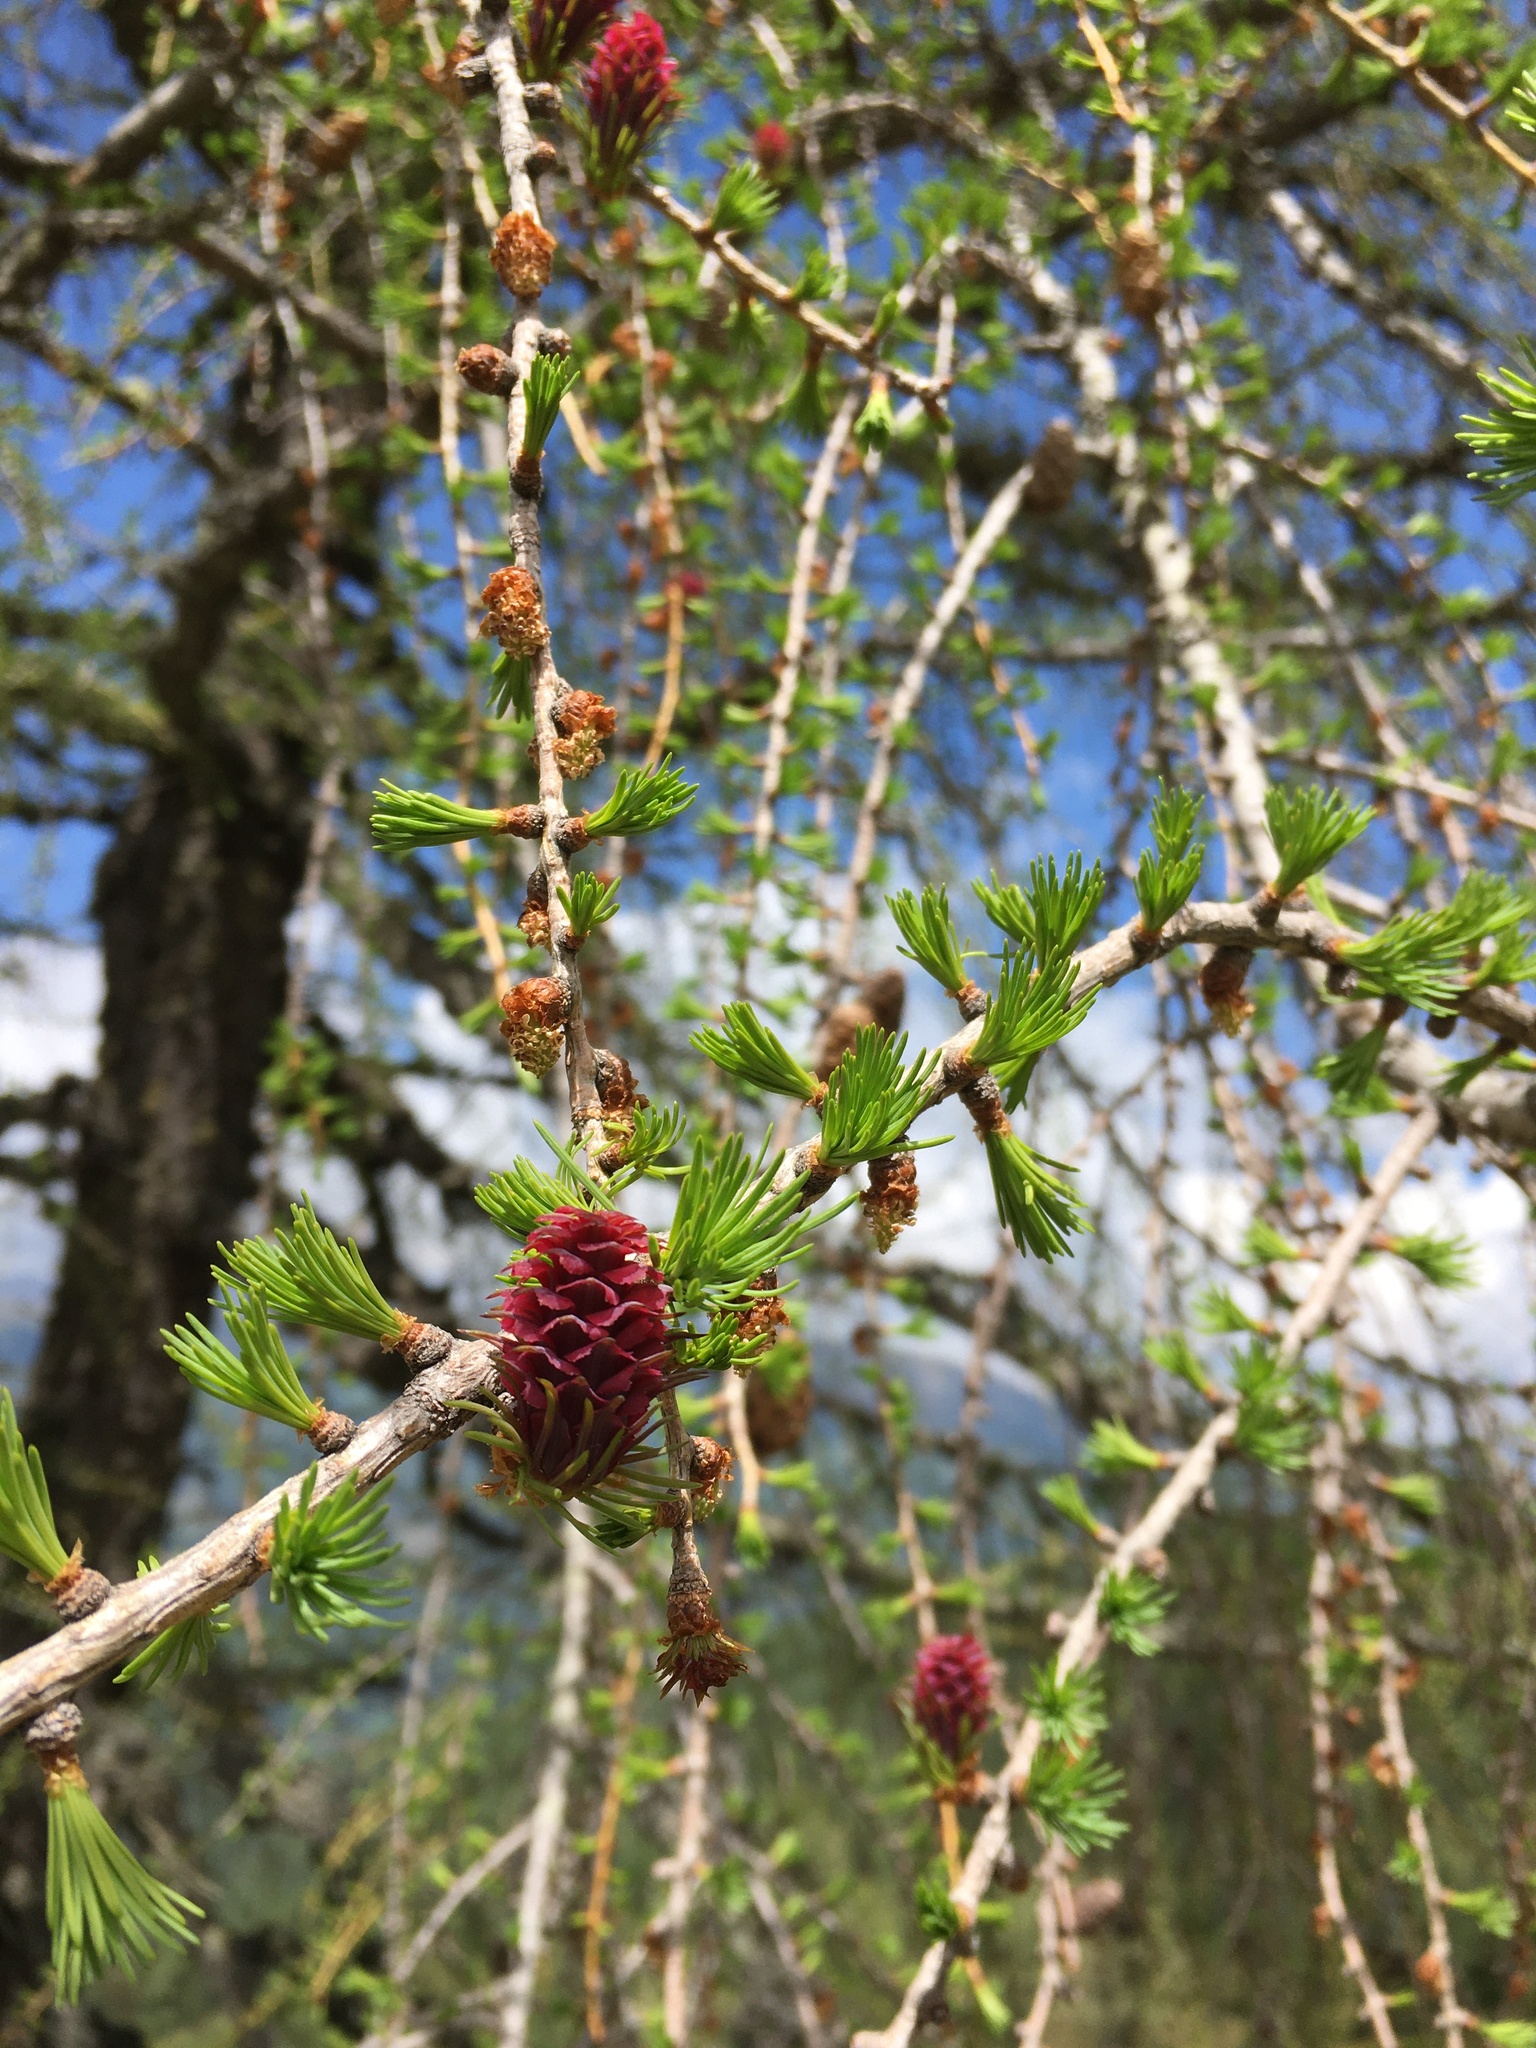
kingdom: Plantae
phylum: Tracheophyta
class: Pinopsida
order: Pinales
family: Pinaceae
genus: Larix
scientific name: Larix decidua
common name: European larch
